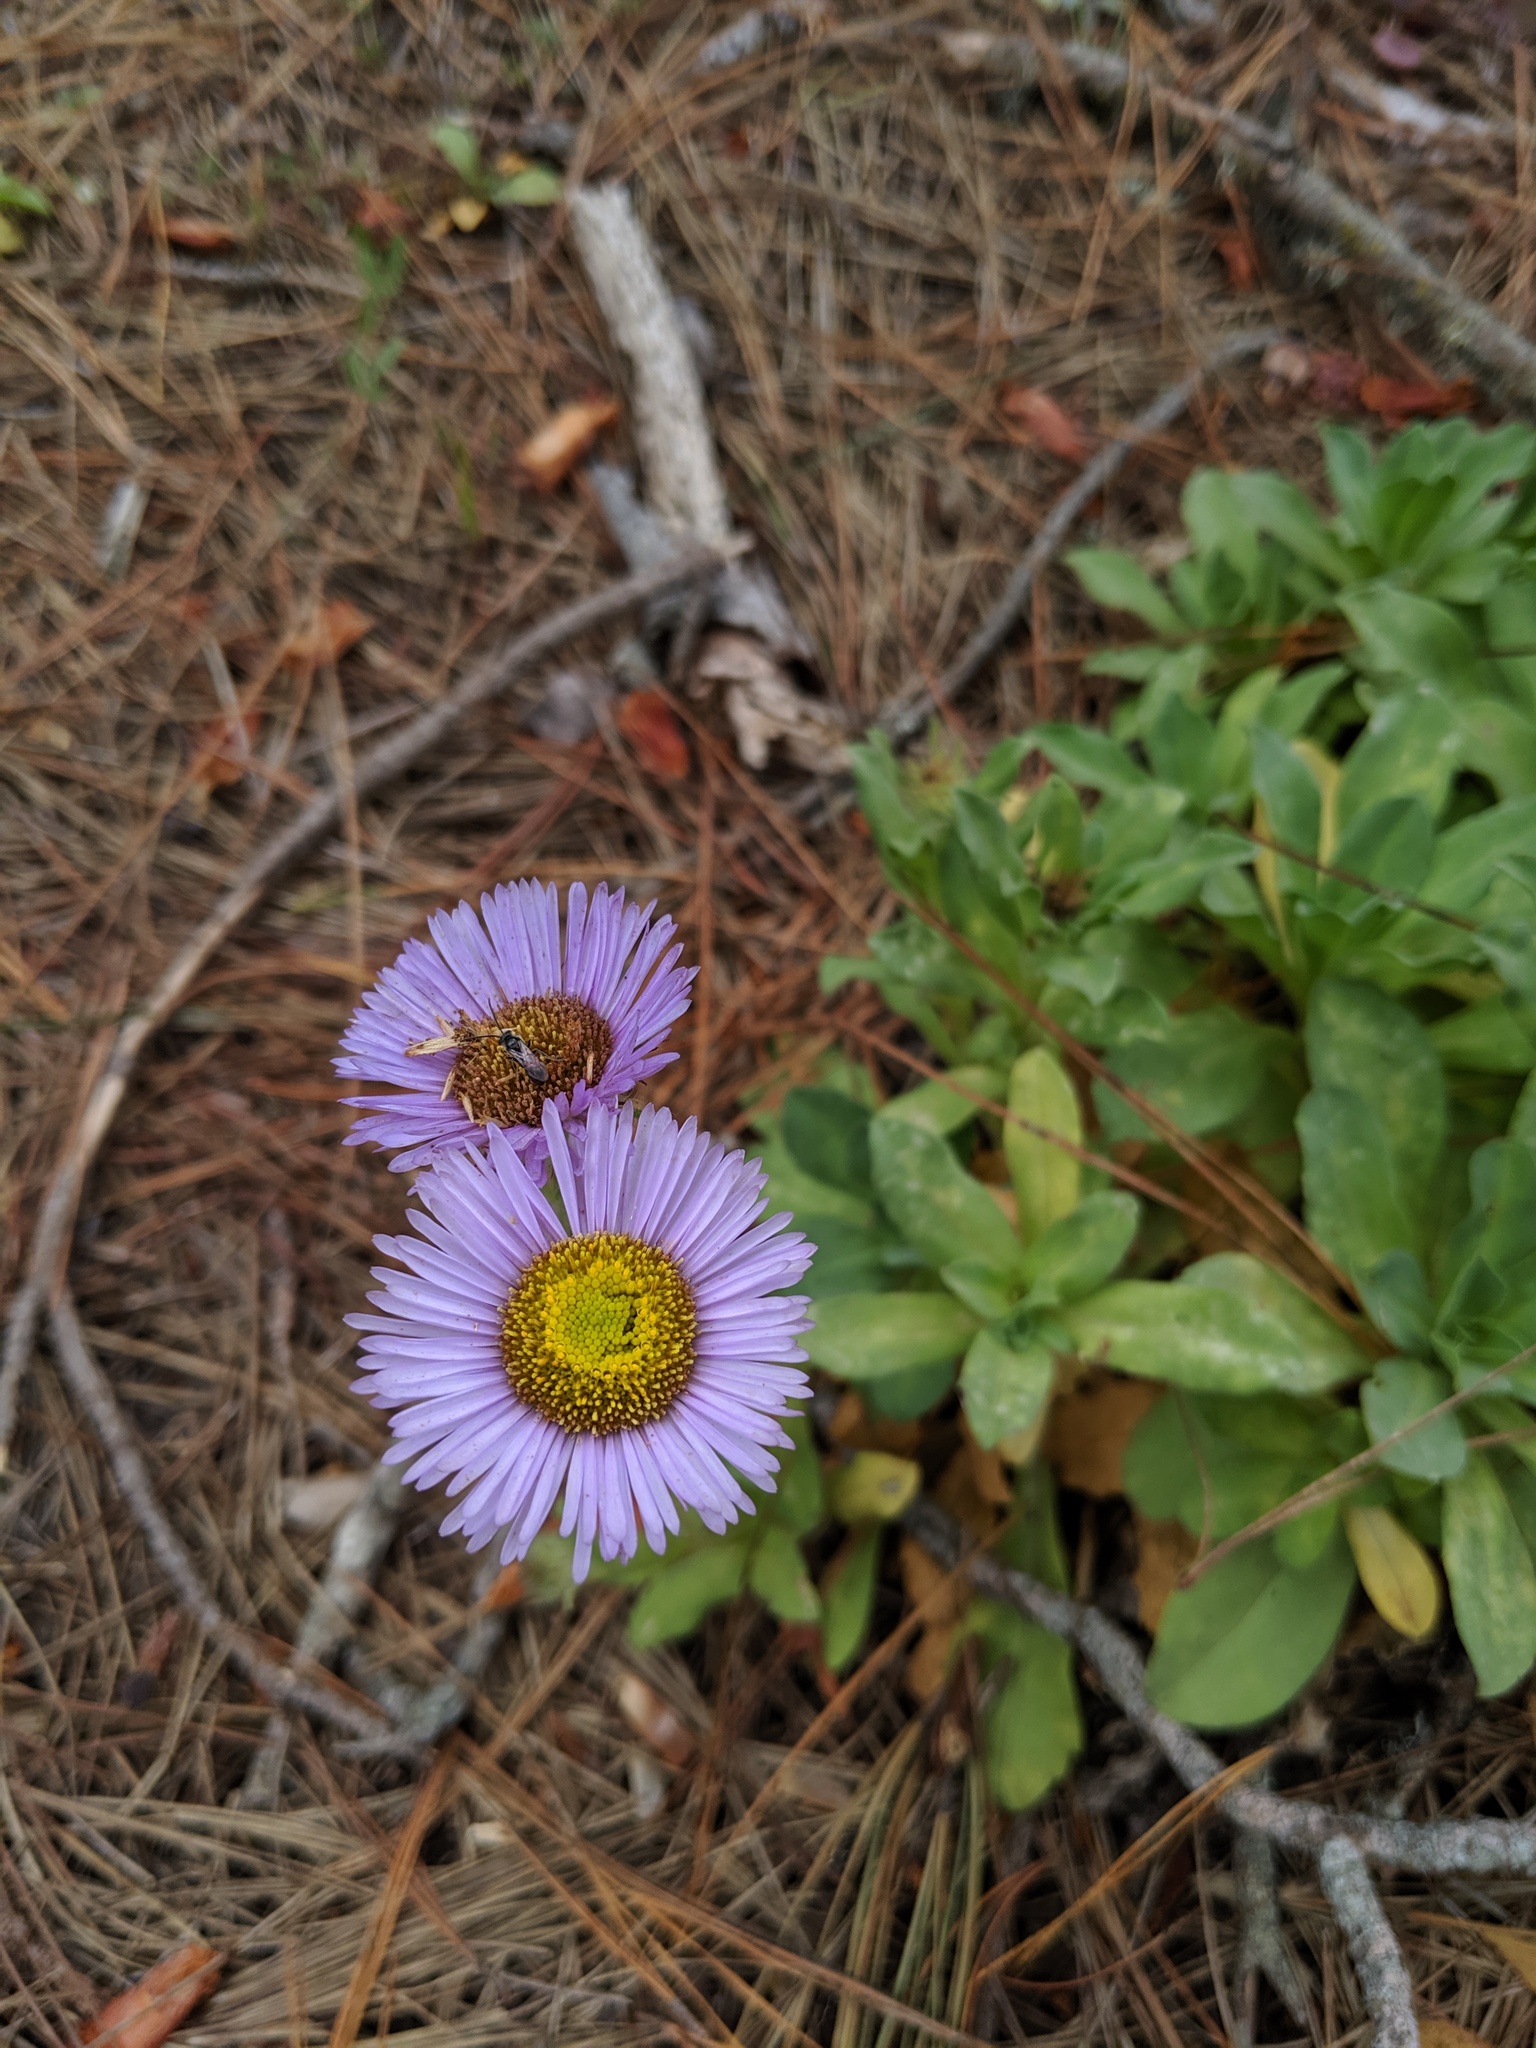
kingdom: Plantae
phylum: Tracheophyta
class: Magnoliopsida
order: Asterales
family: Asteraceae
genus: Erigeron
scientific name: Erigeron glaucus
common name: Seaside daisy
